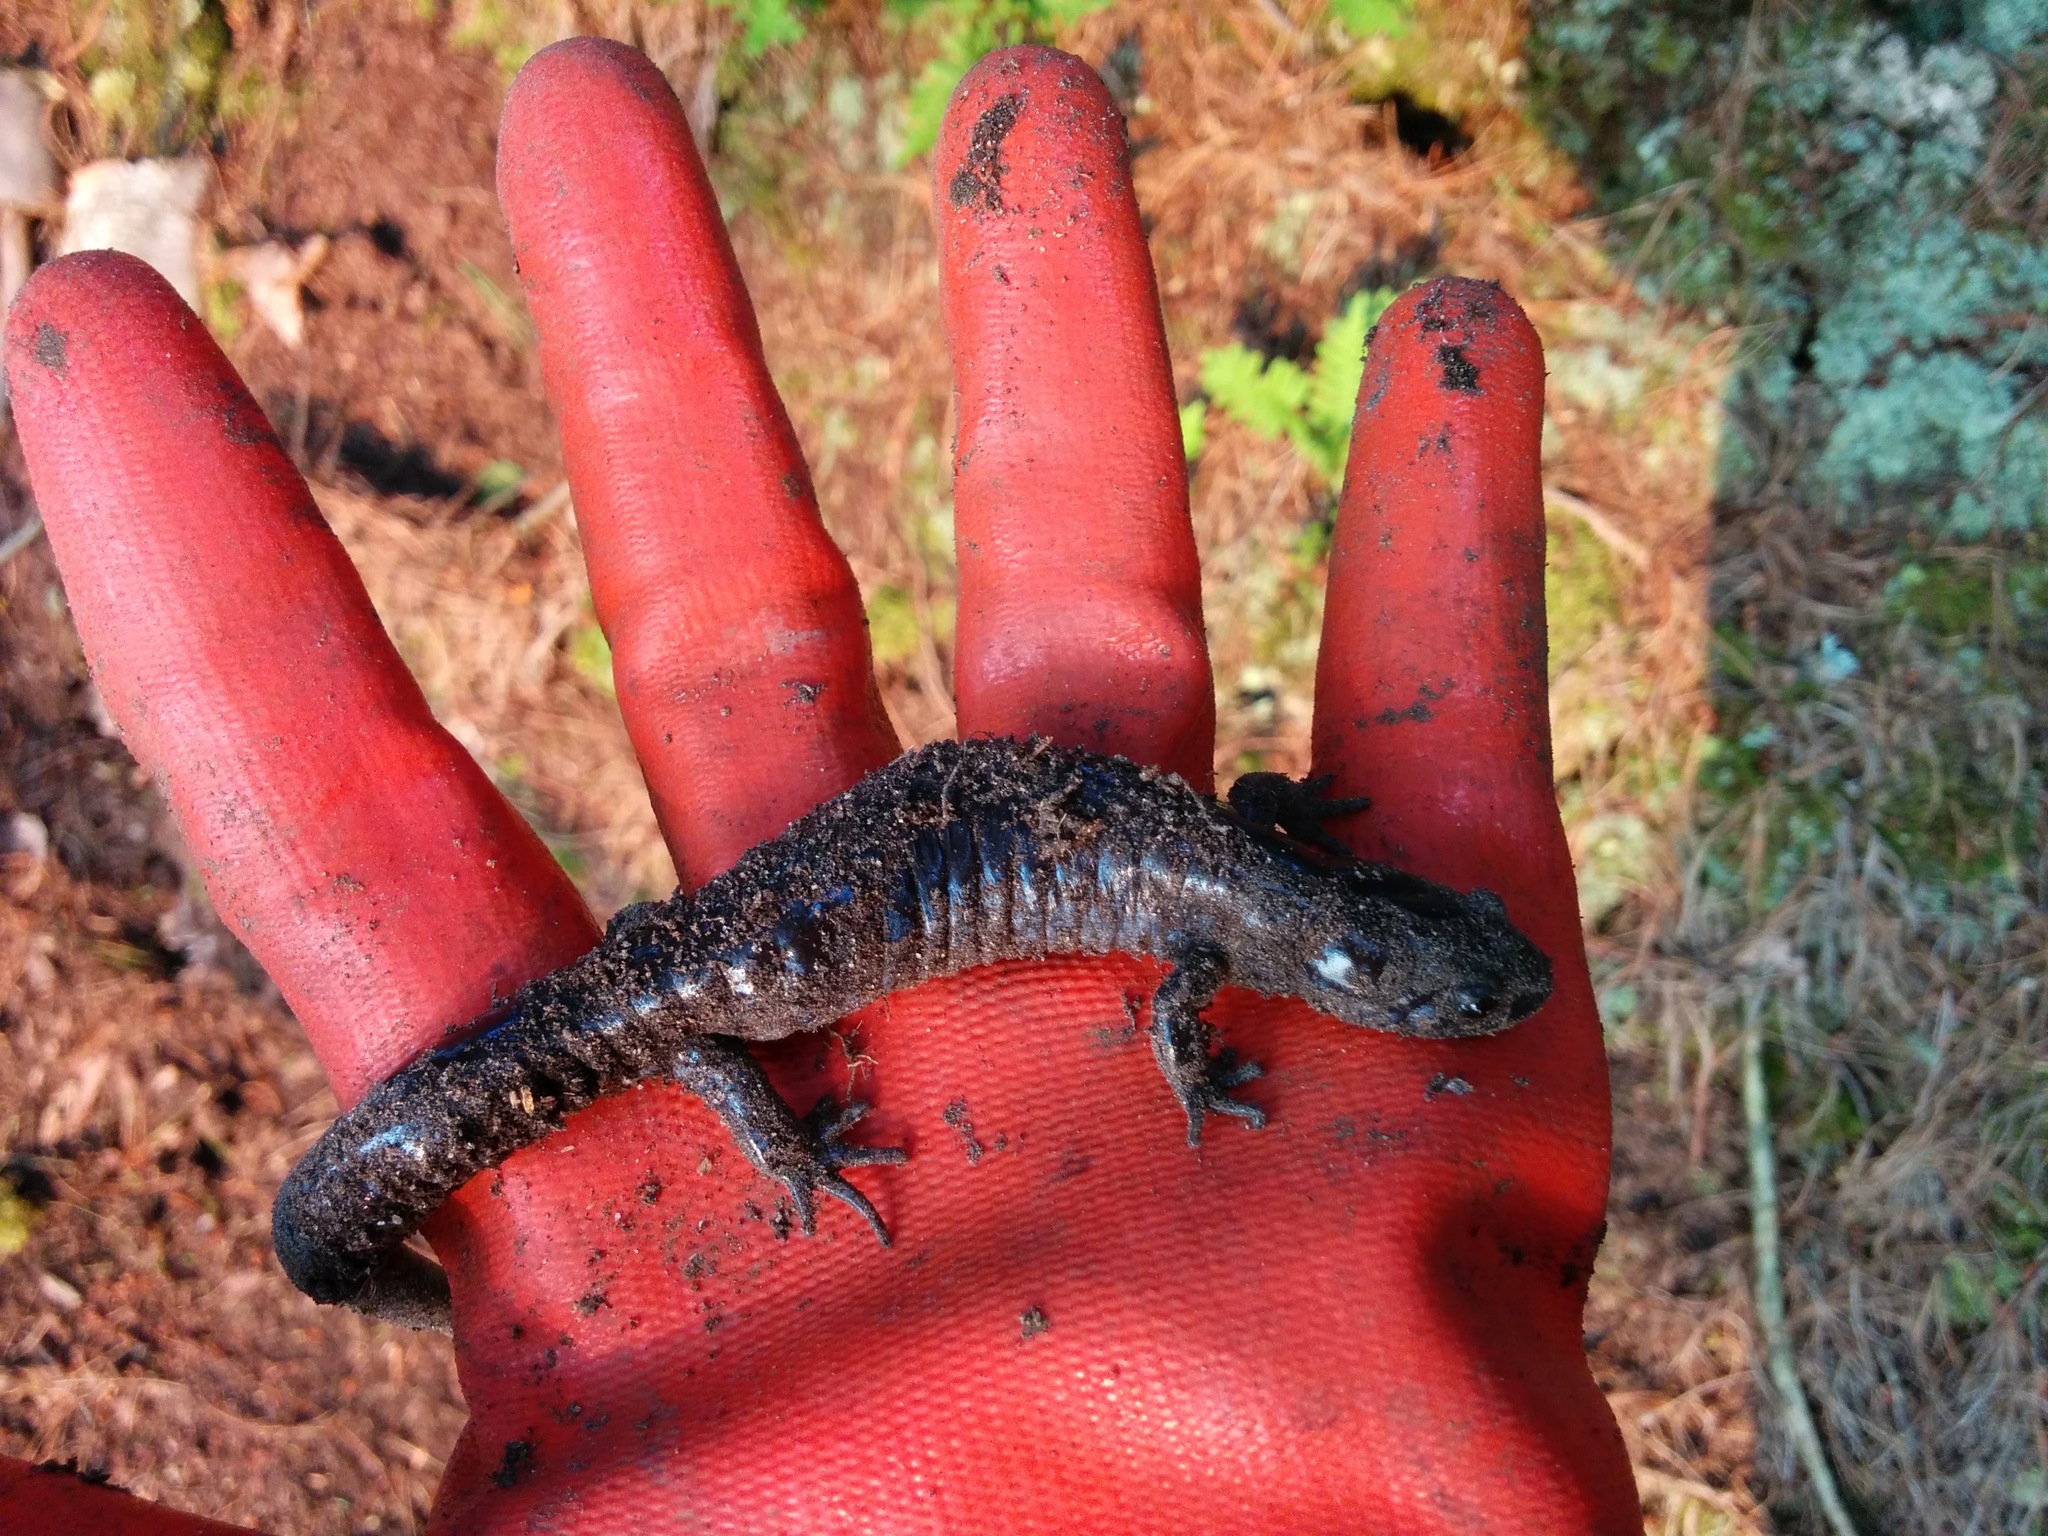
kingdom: Animalia
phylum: Chordata
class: Amphibia
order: Caudata
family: Ambystomatidae
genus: Ambystoma
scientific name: Ambystoma laterale
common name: Blue-spotted salamander
